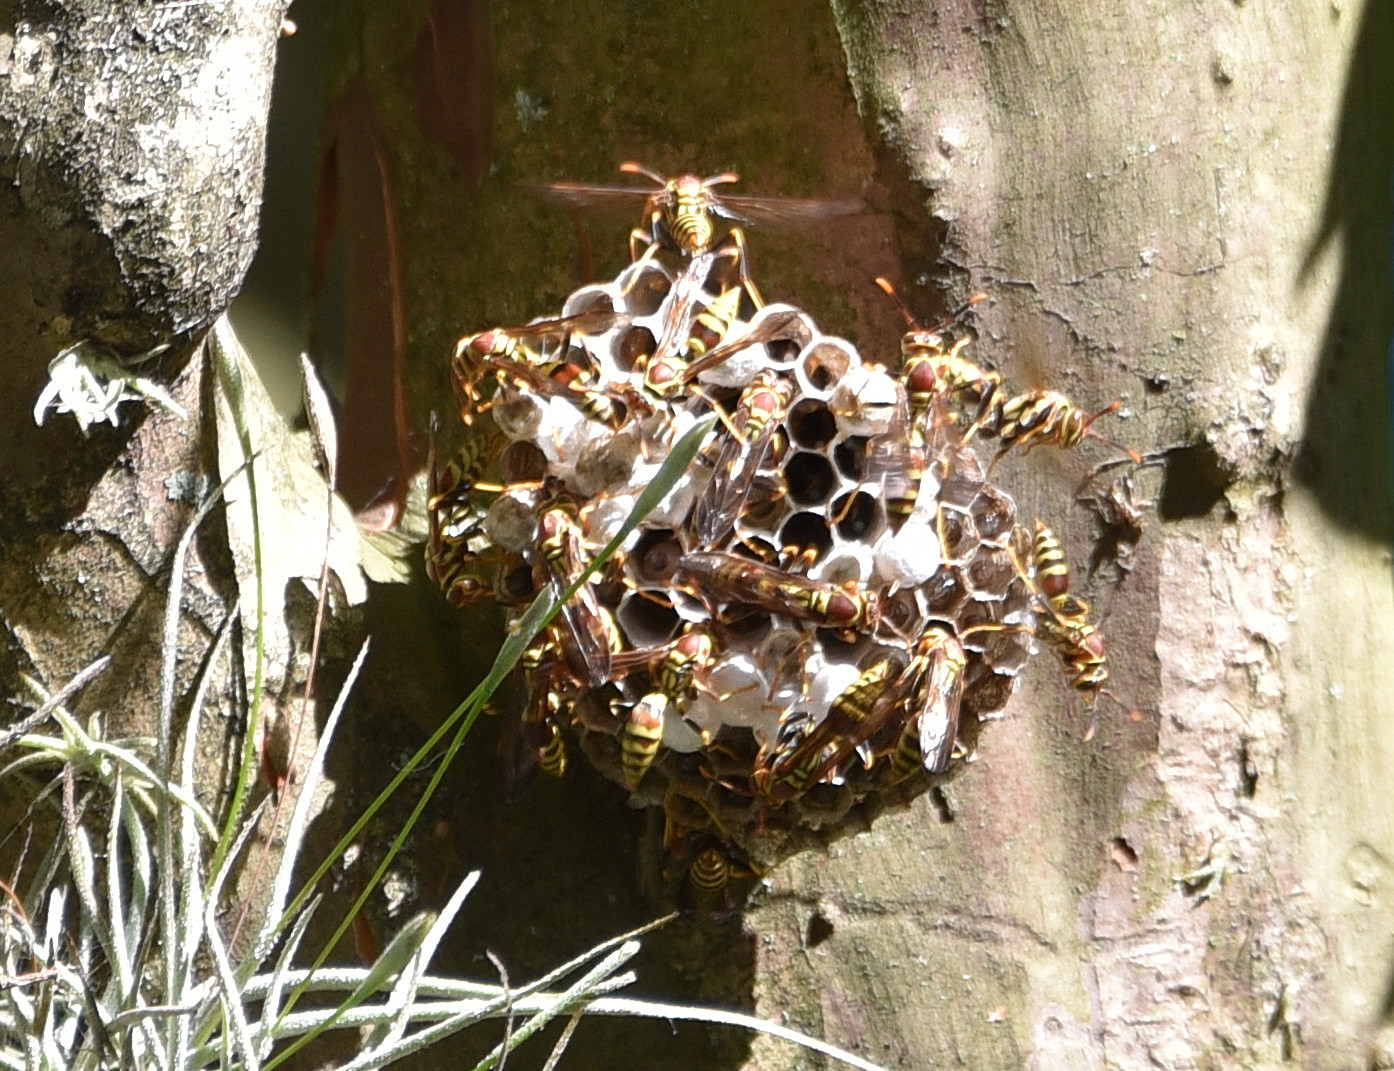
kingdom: Animalia
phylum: Arthropoda
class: Insecta
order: Hymenoptera
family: Eumenidae
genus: Polistes
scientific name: Polistes exclamans
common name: Paper wasp
